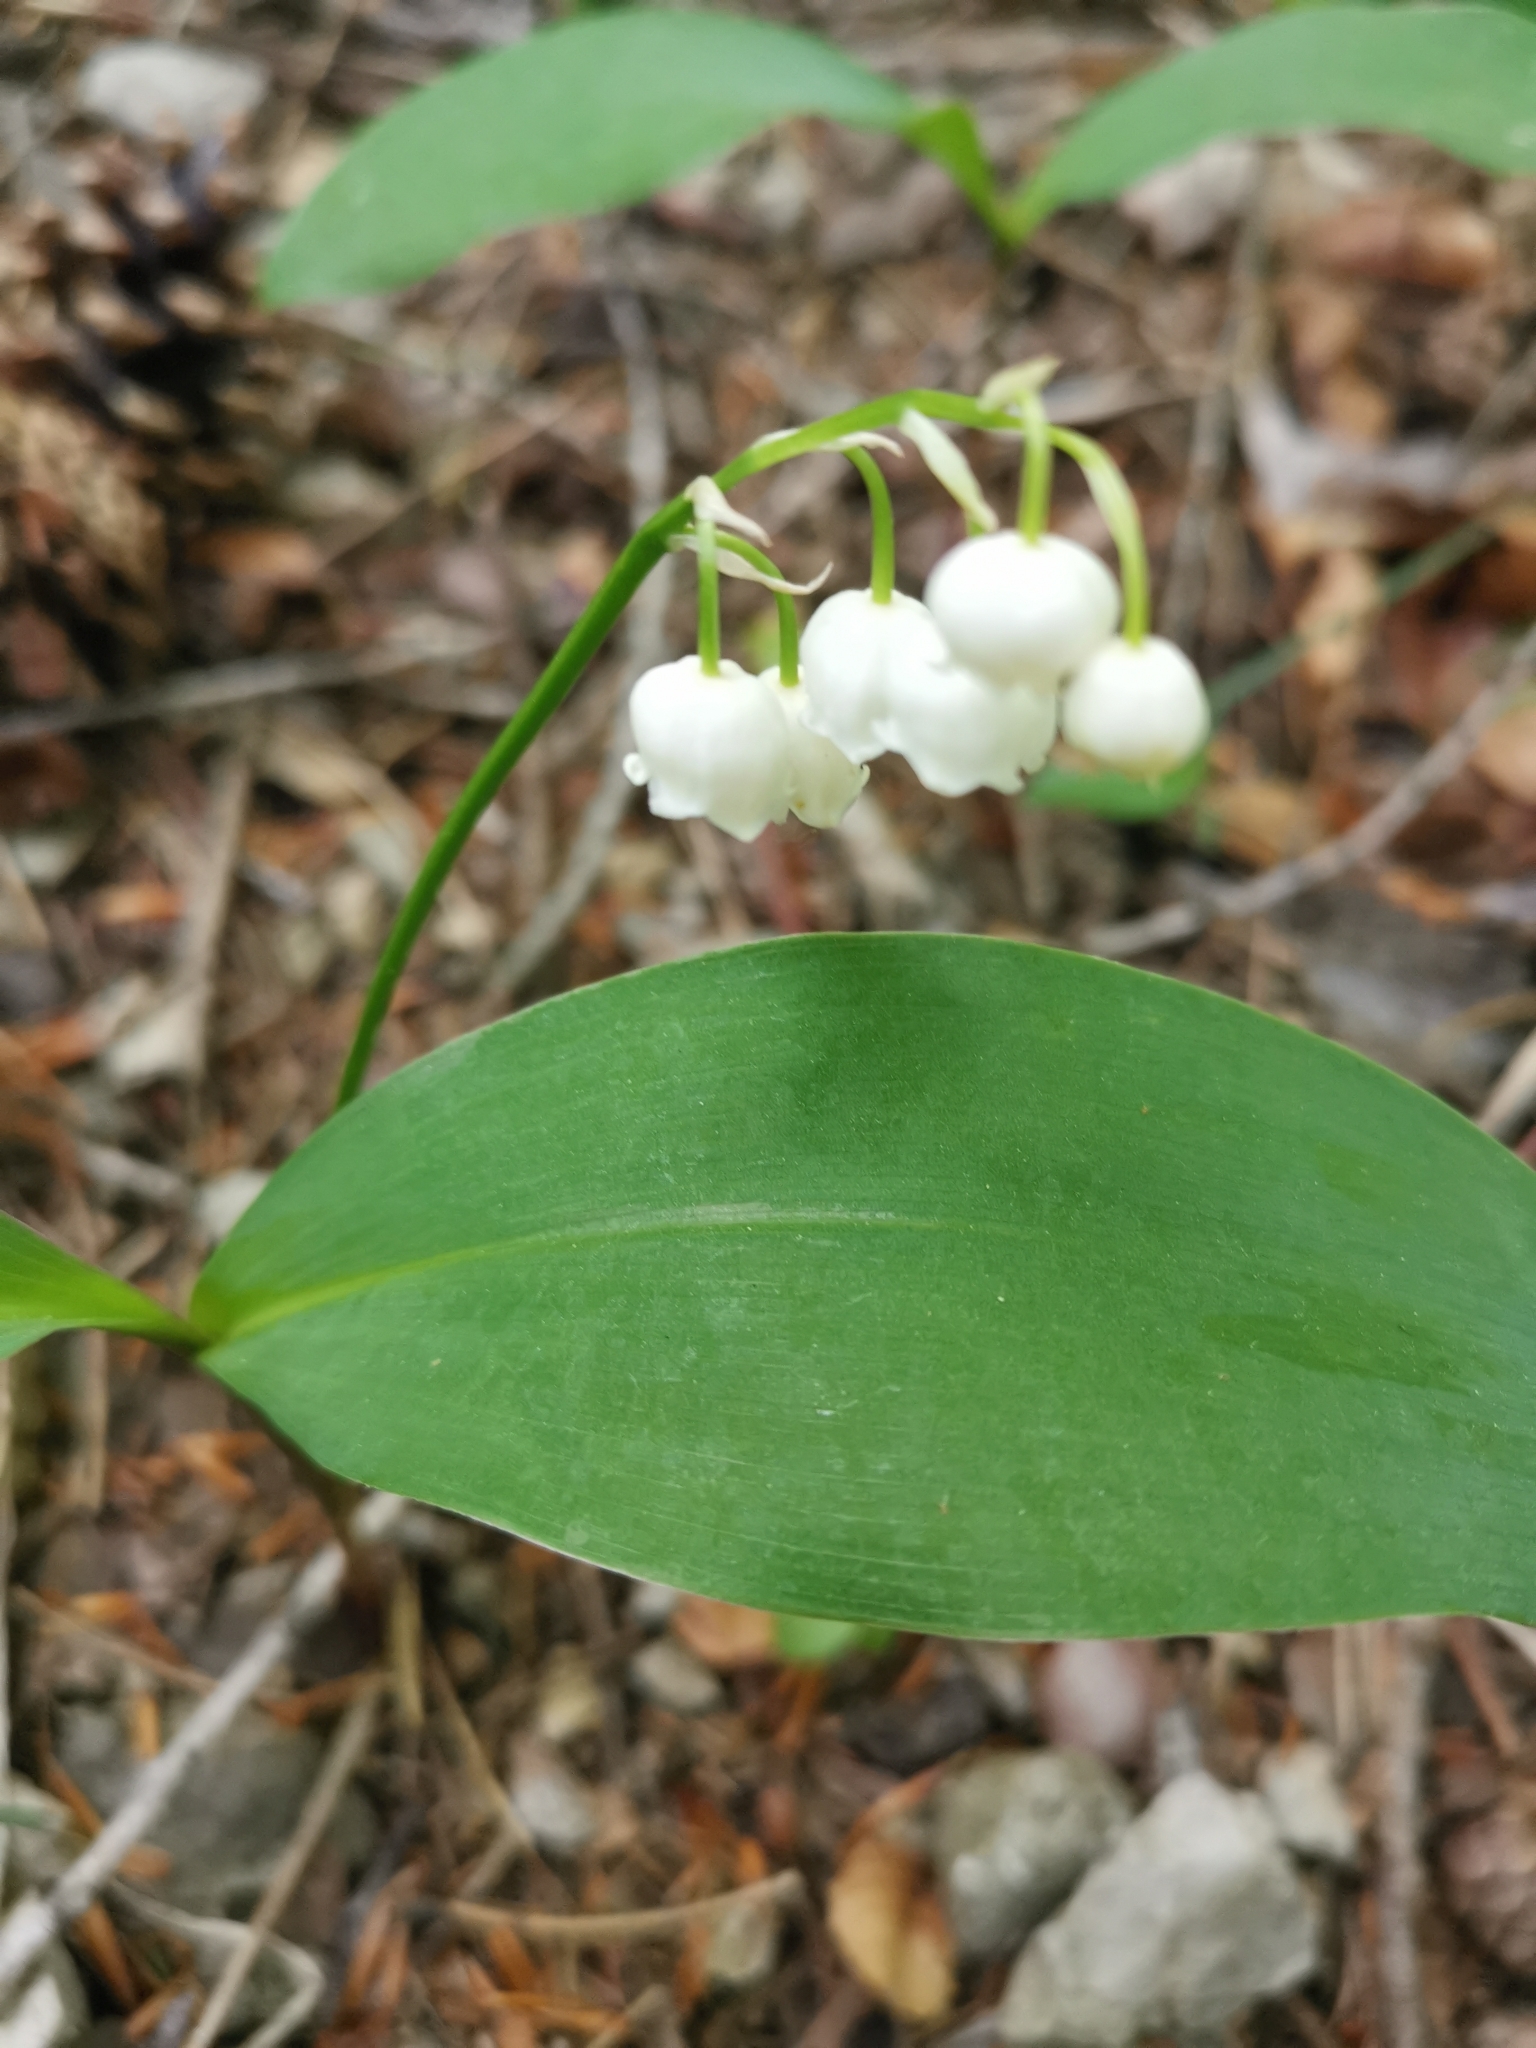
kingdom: Plantae
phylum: Tracheophyta
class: Liliopsida
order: Asparagales
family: Asparagaceae
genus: Convallaria
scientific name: Convallaria majalis
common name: Lily-of-the-valley
